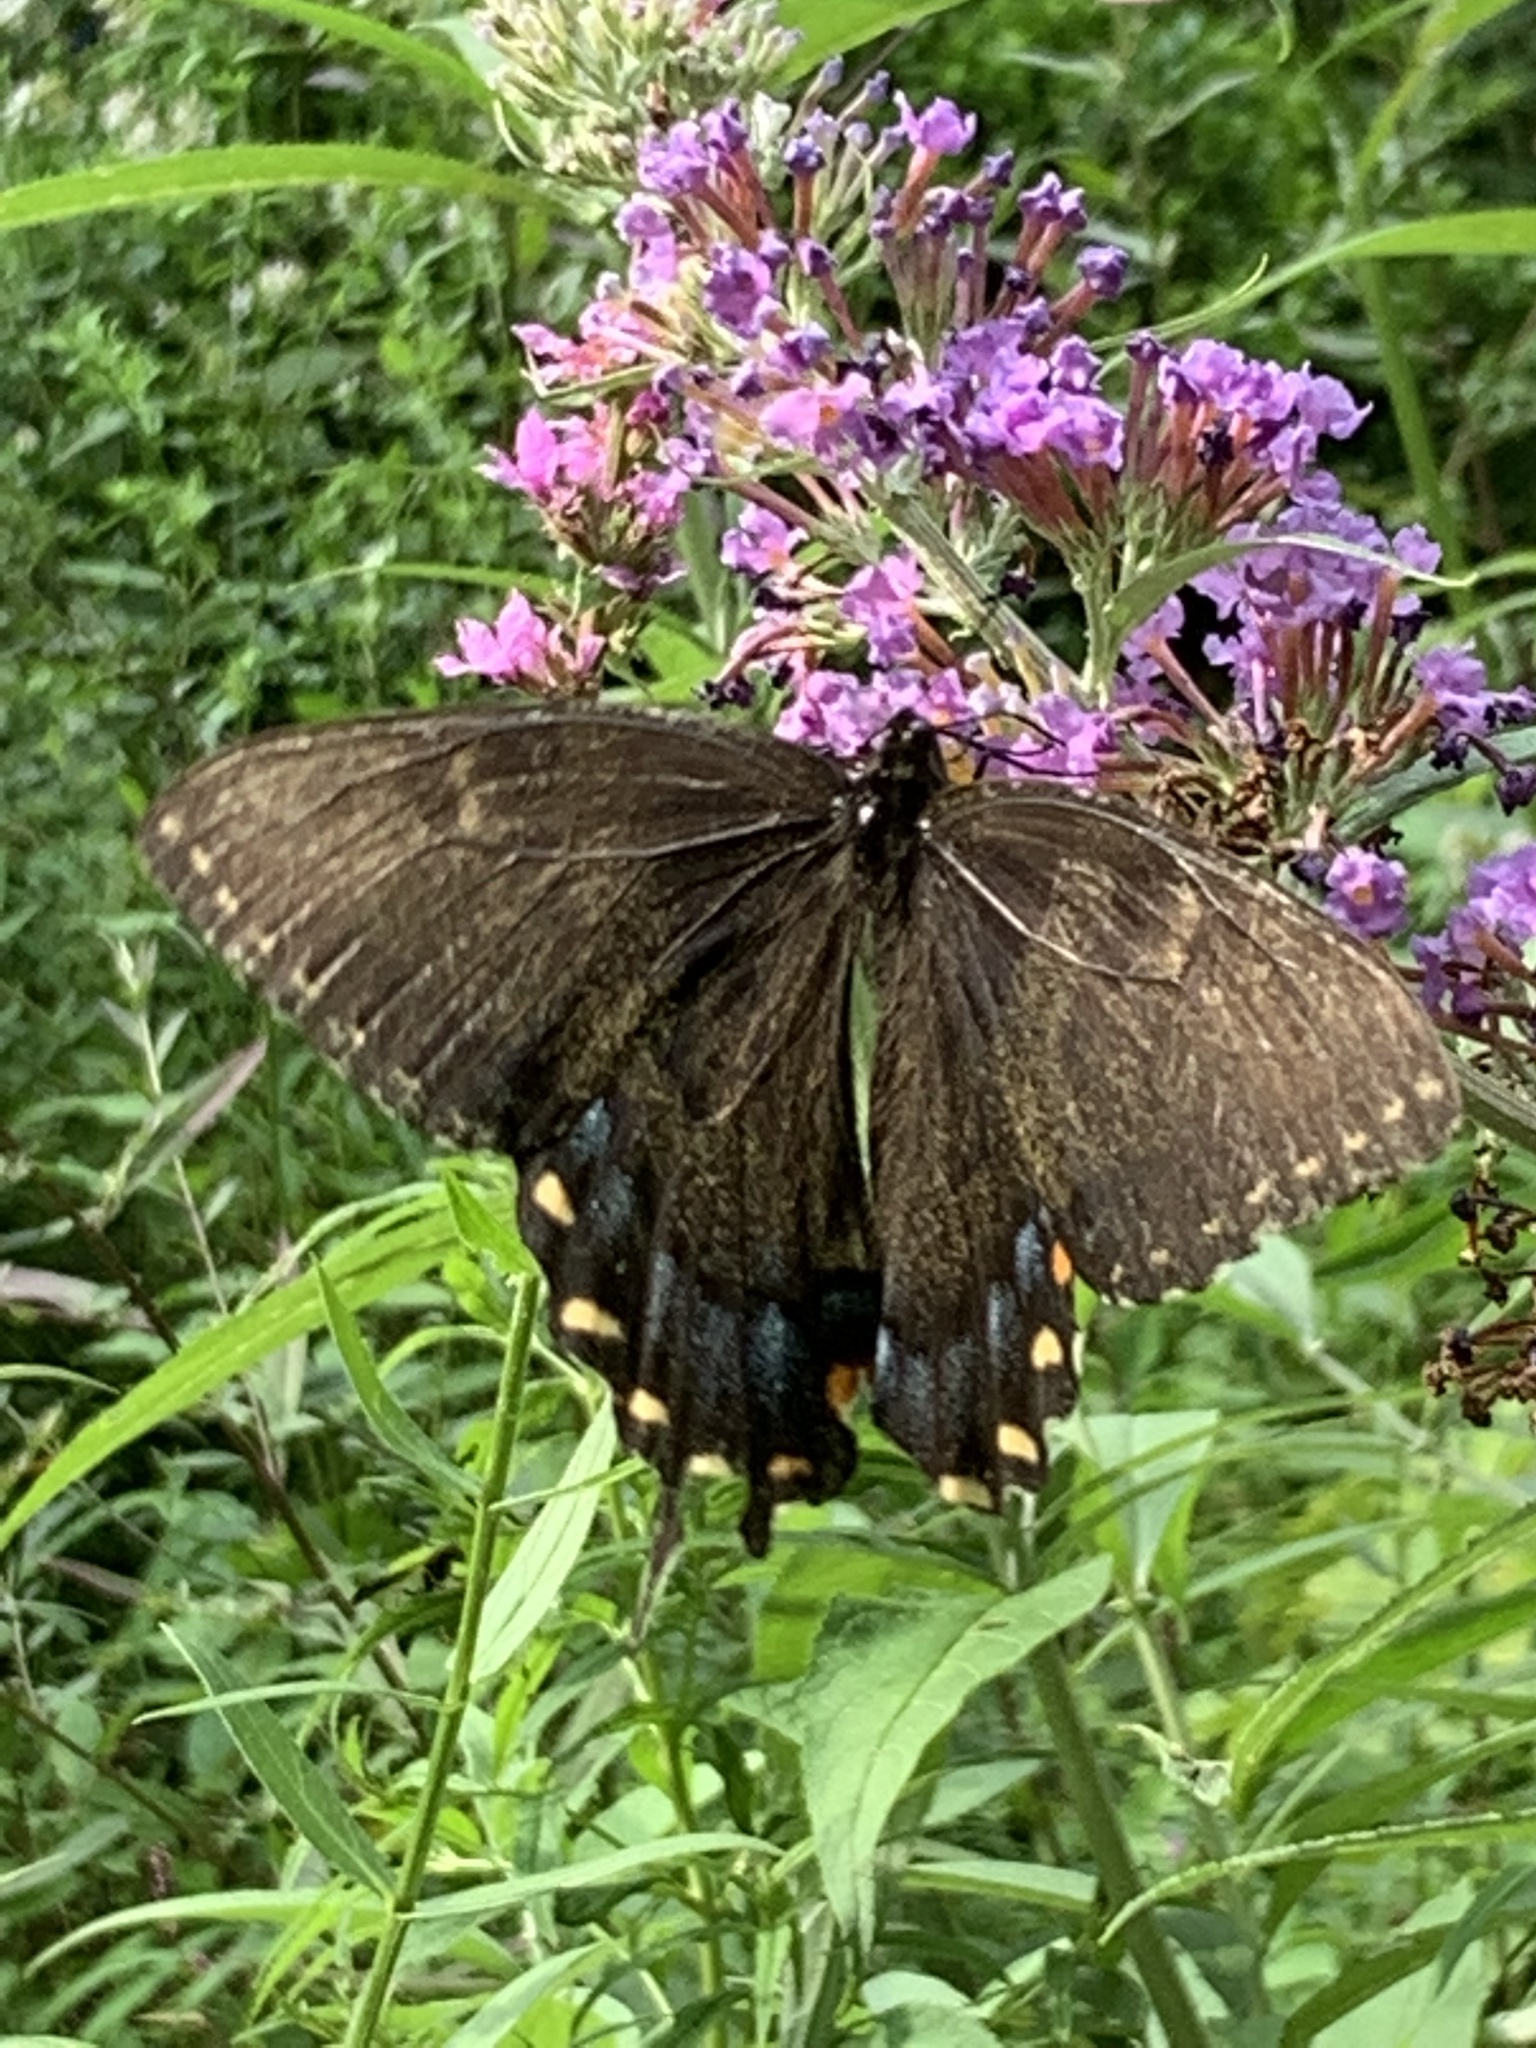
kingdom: Animalia
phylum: Arthropoda
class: Insecta
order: Lepidoptera
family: Papilionidae
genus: Papilio
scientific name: Papilio glaucus
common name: Tiger swallowtail
